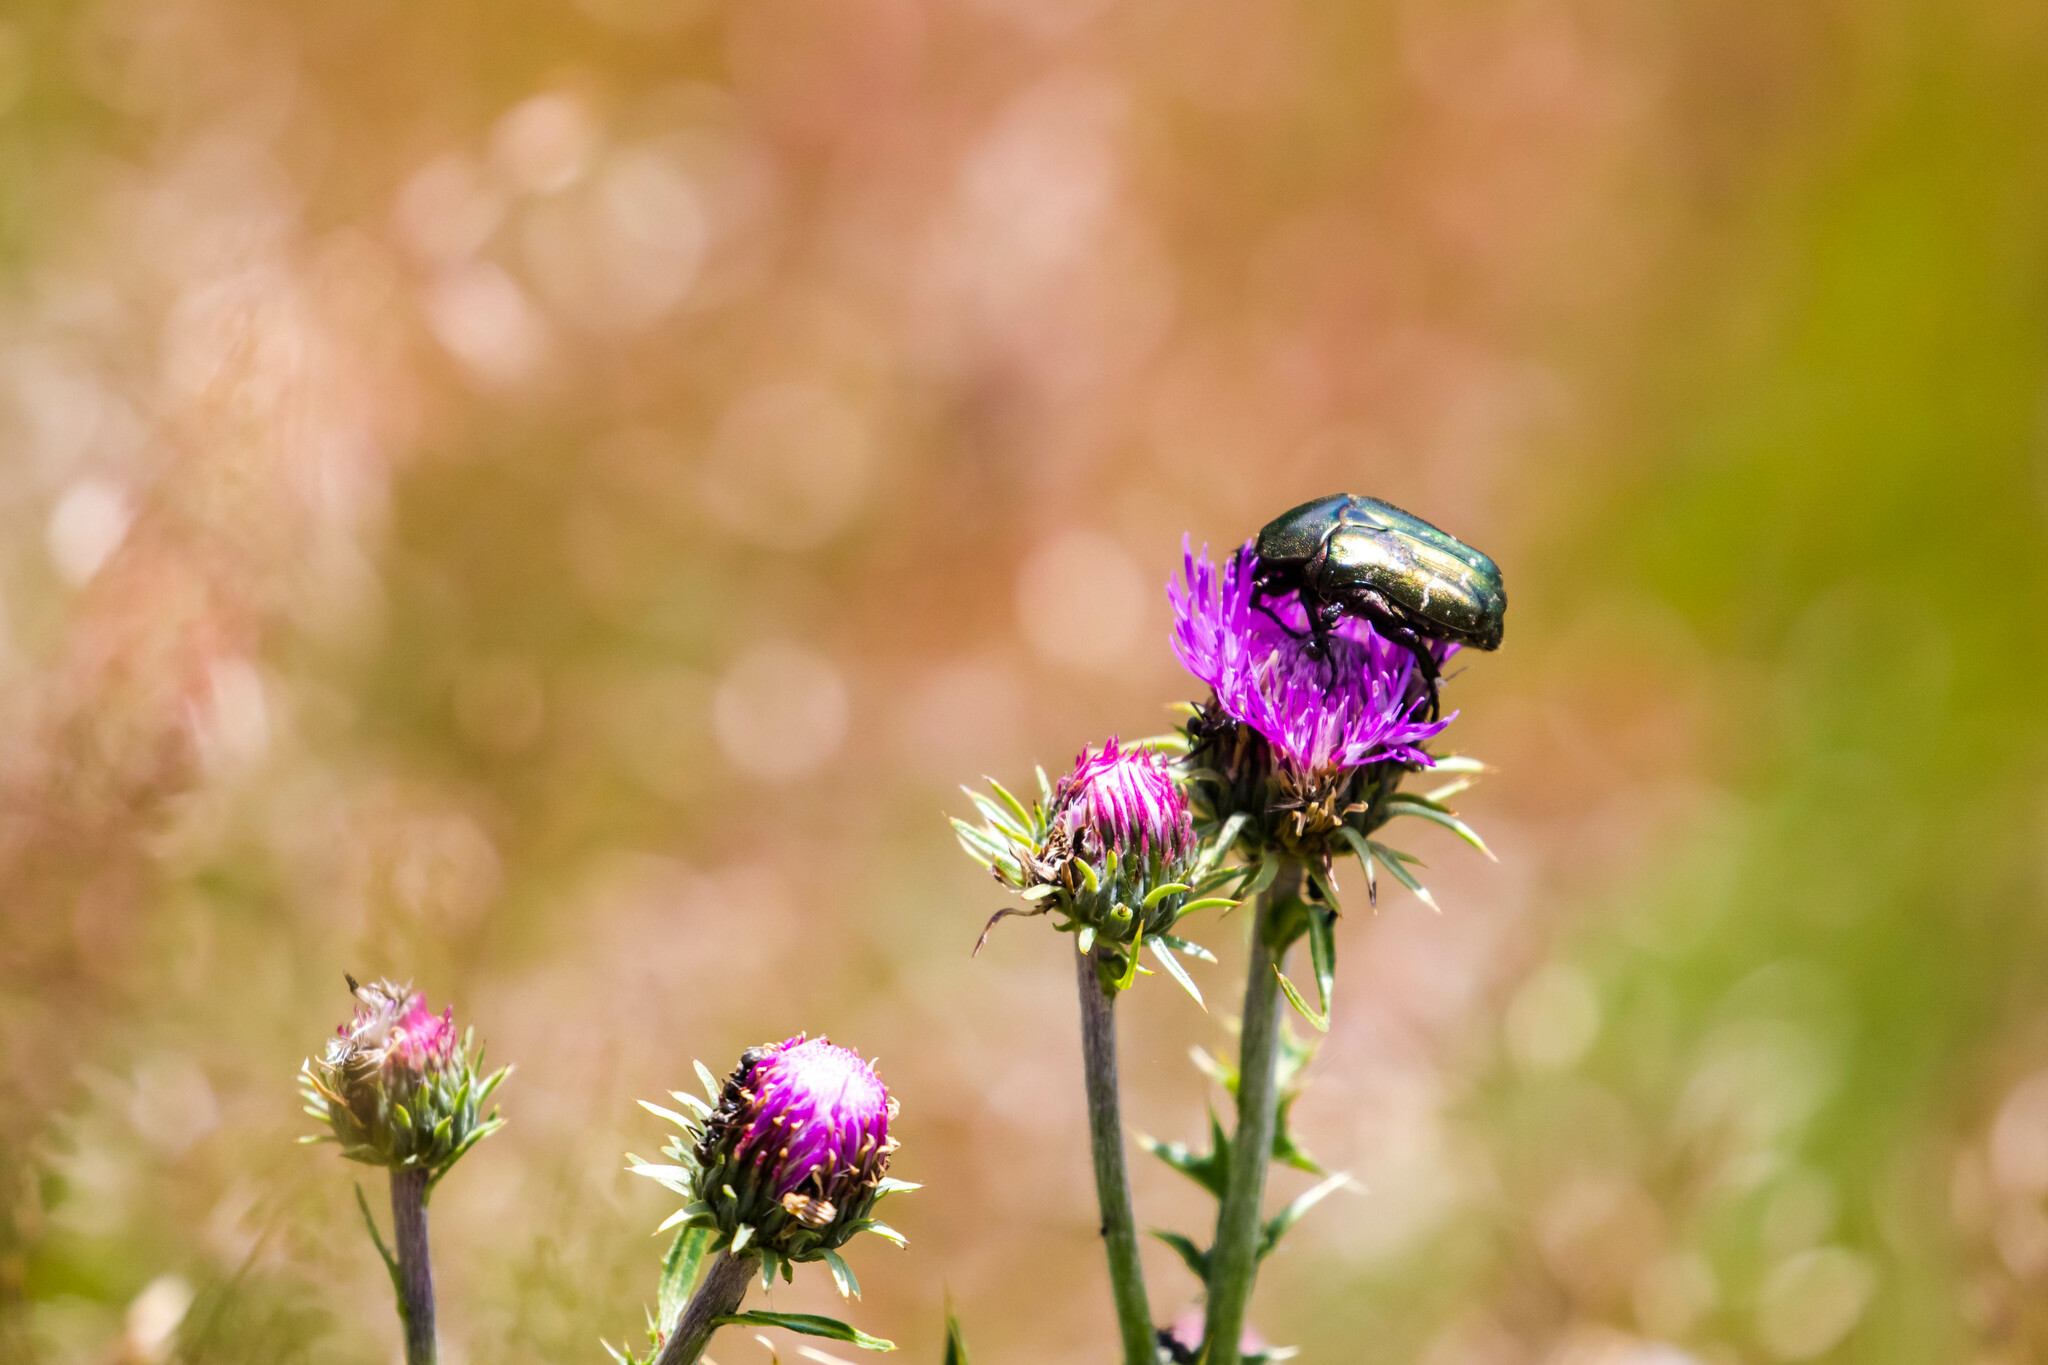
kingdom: Animalia
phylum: Arthropoda
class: Insecta
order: Coleoptera
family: Scarabaeidae
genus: Protaetia
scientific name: Protaetia cuprea
